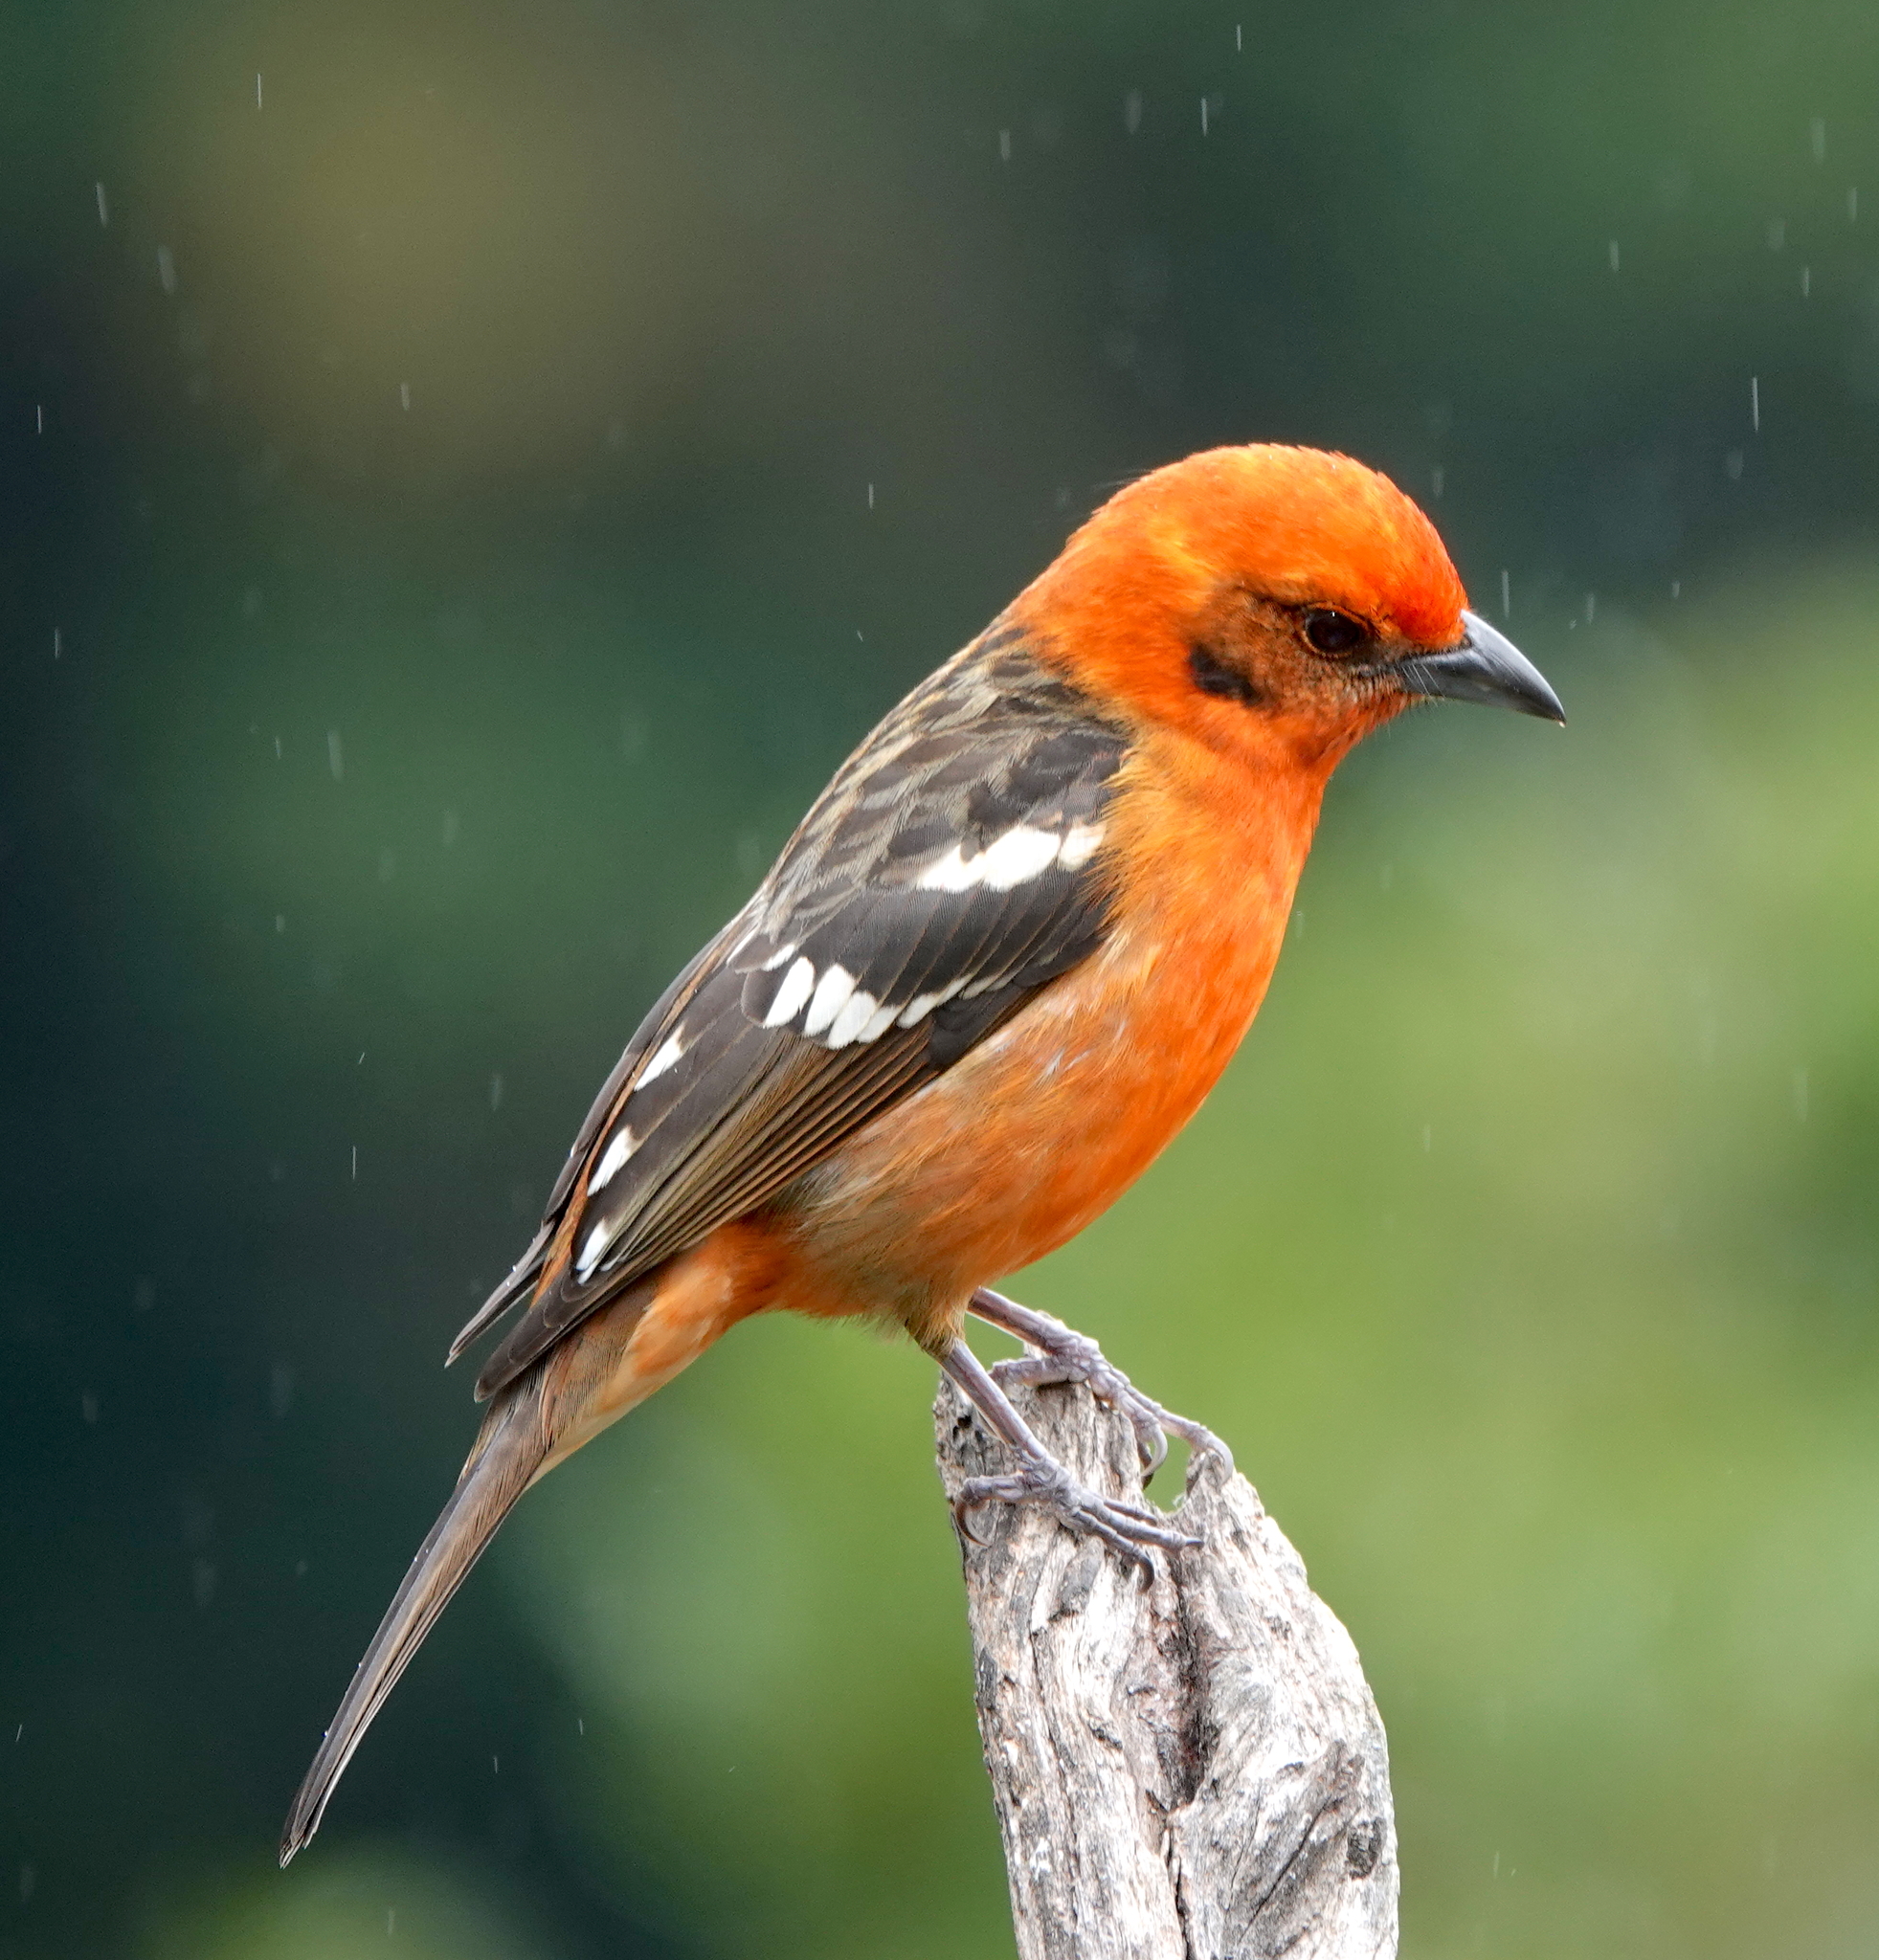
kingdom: Animalia
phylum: Chordata
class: Aves
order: Passeriformes
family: Cardinalidae
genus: Piranga
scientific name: Piranga bidentata
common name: Flame-colored tanager
